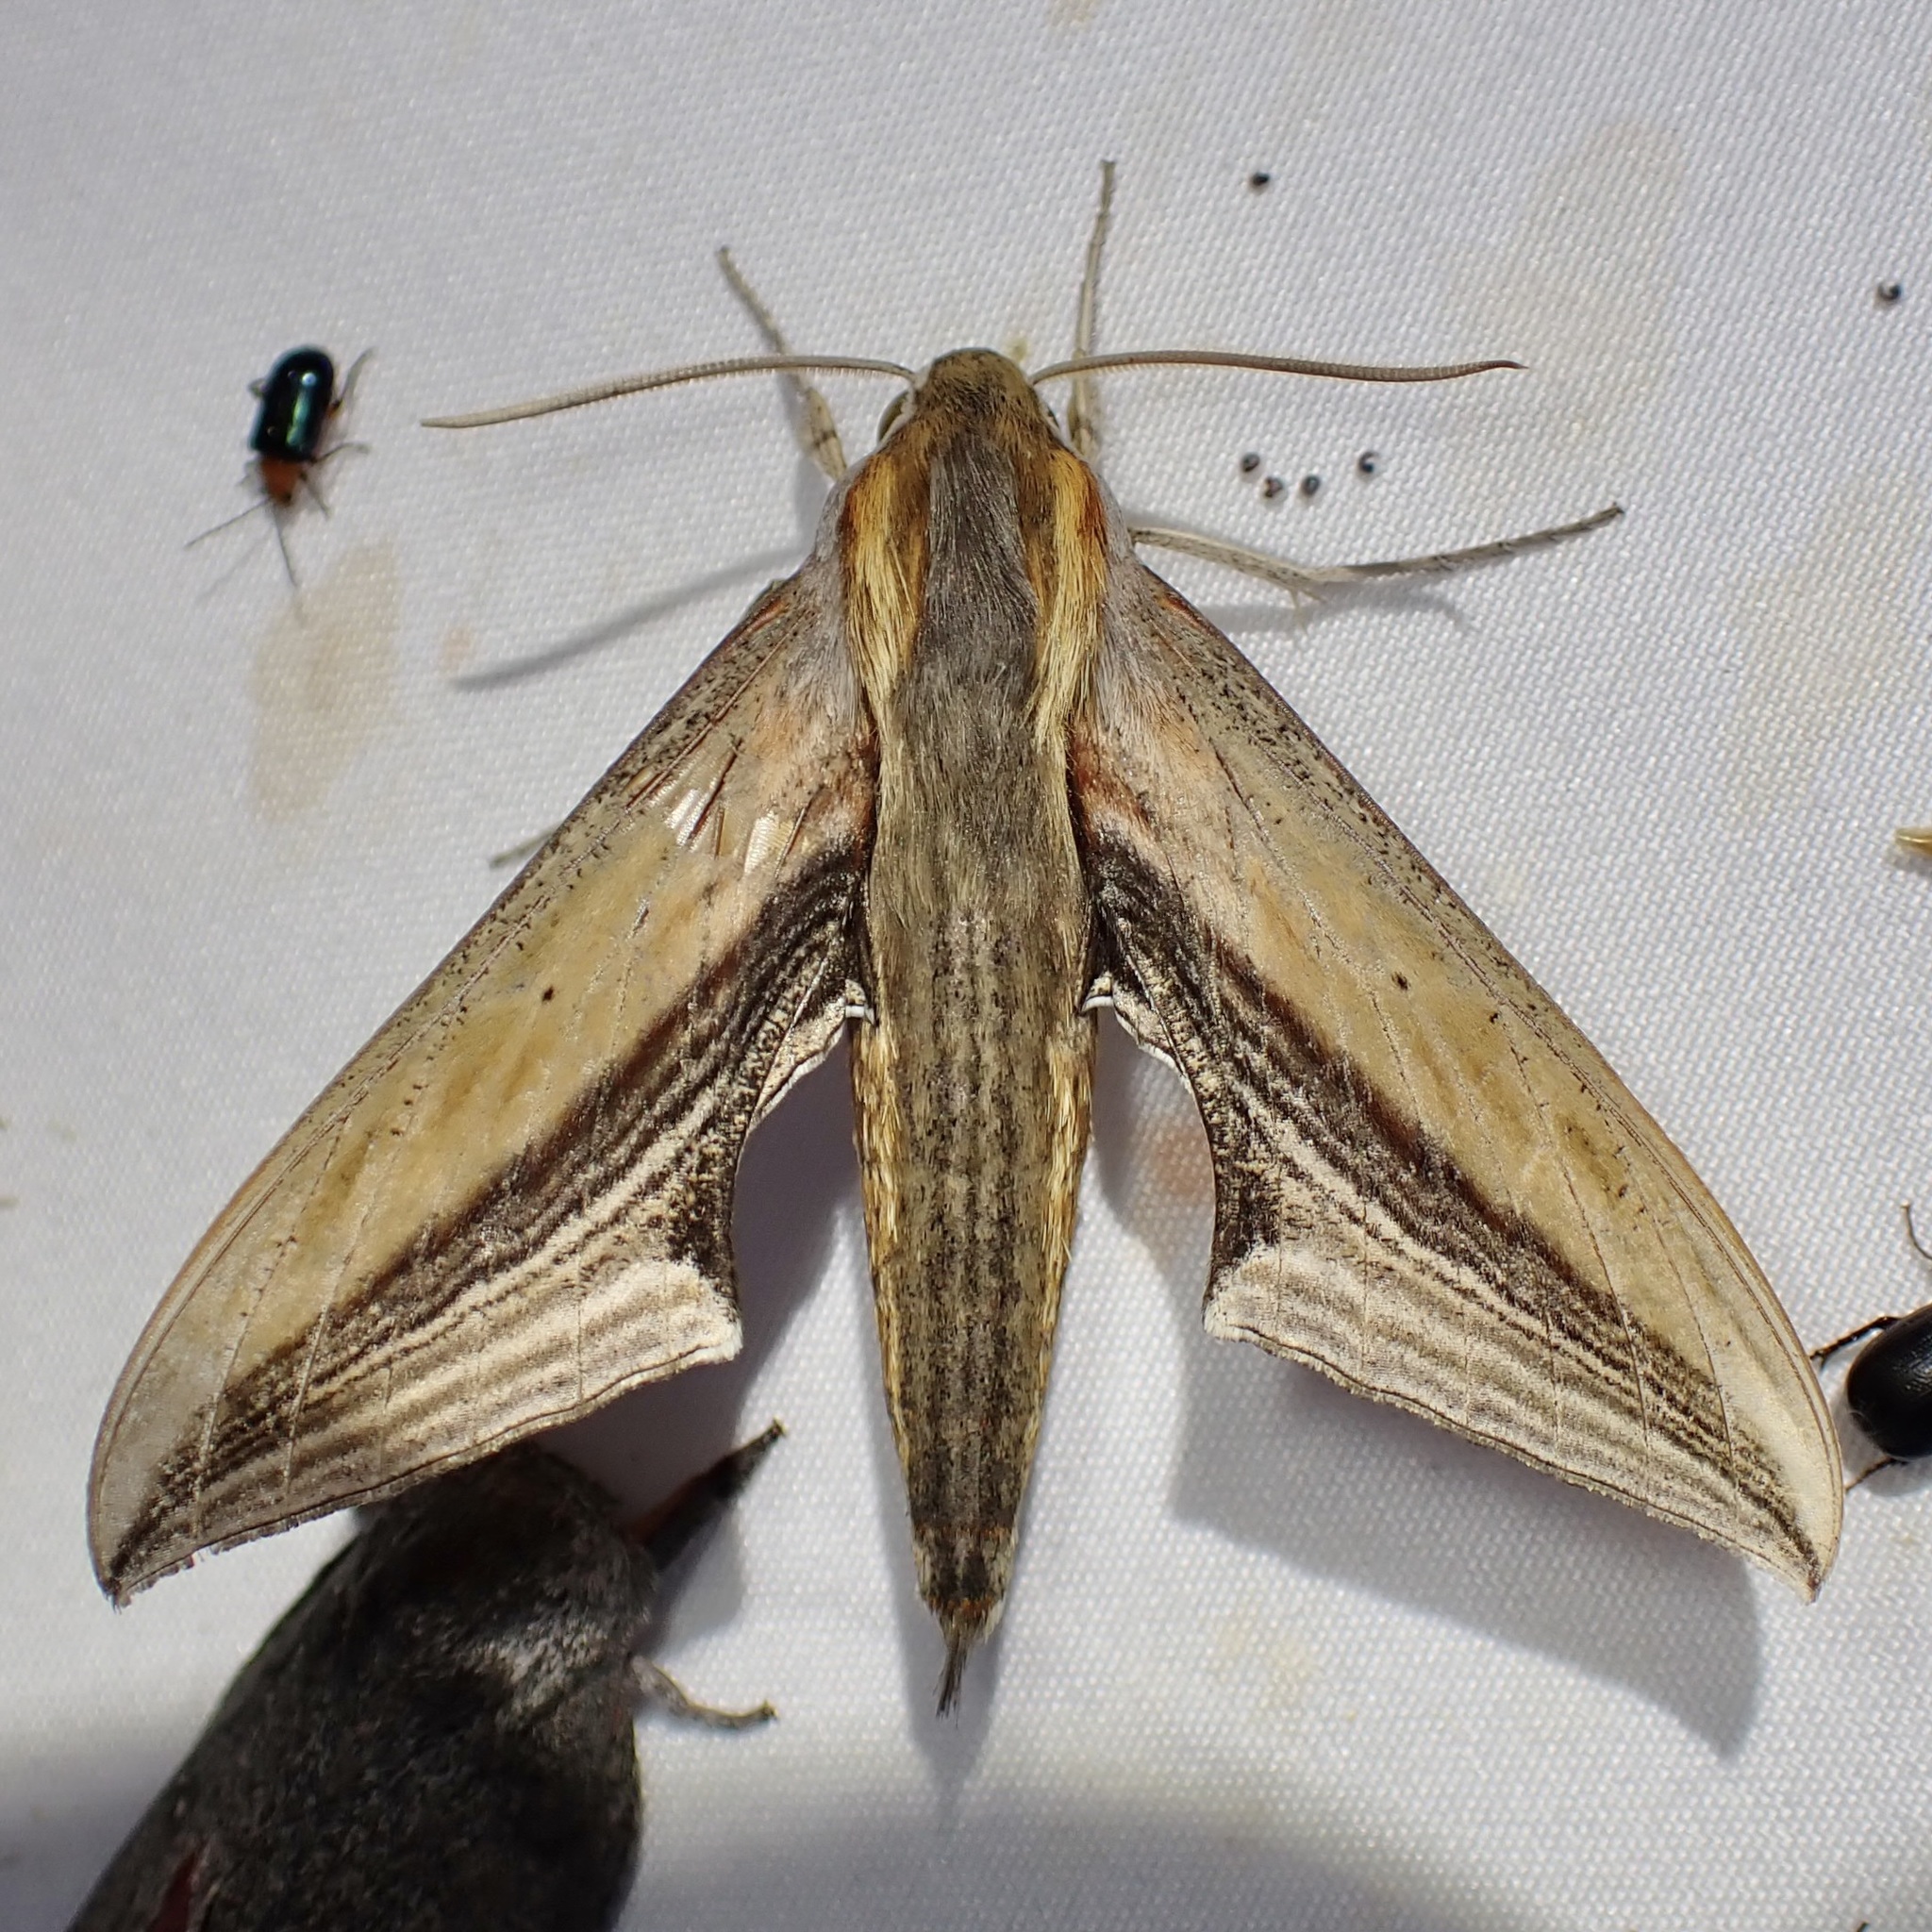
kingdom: Animalia
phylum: Arthropoda
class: Insecta
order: Lepidoptera
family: Sphingidae
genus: Xylophanes
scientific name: Xylophanes falco
